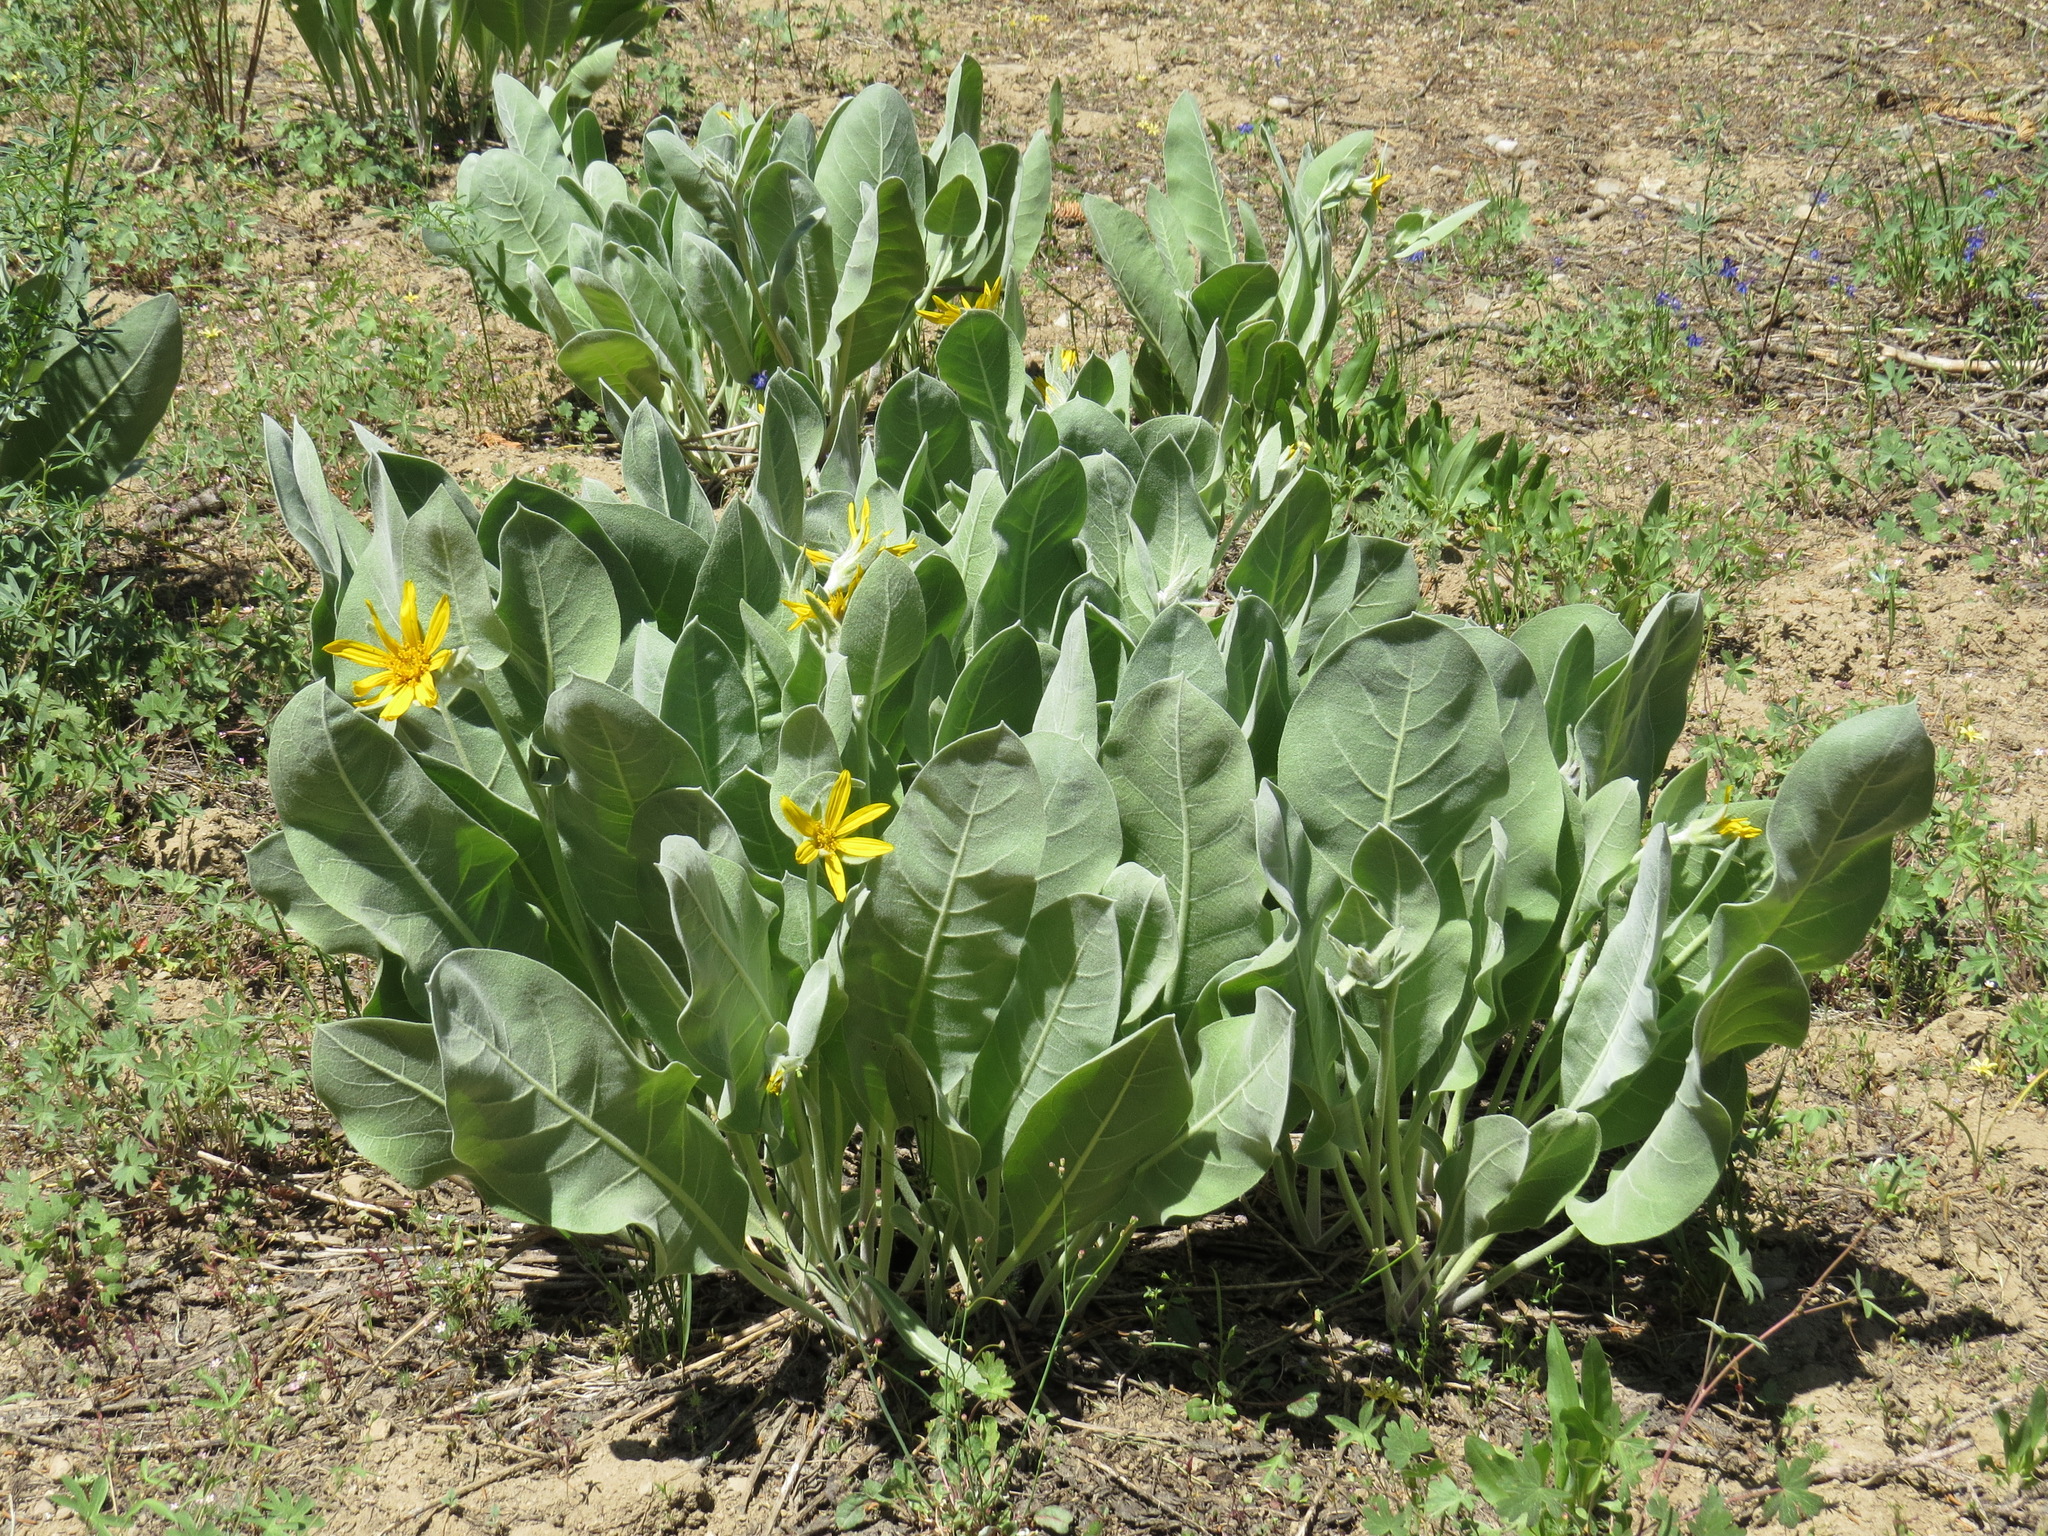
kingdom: Plantae
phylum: Tracheophyta
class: Magnoliopsida
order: Asterales
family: Asteraceae
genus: Wyethia
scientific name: Wyethia mollis
